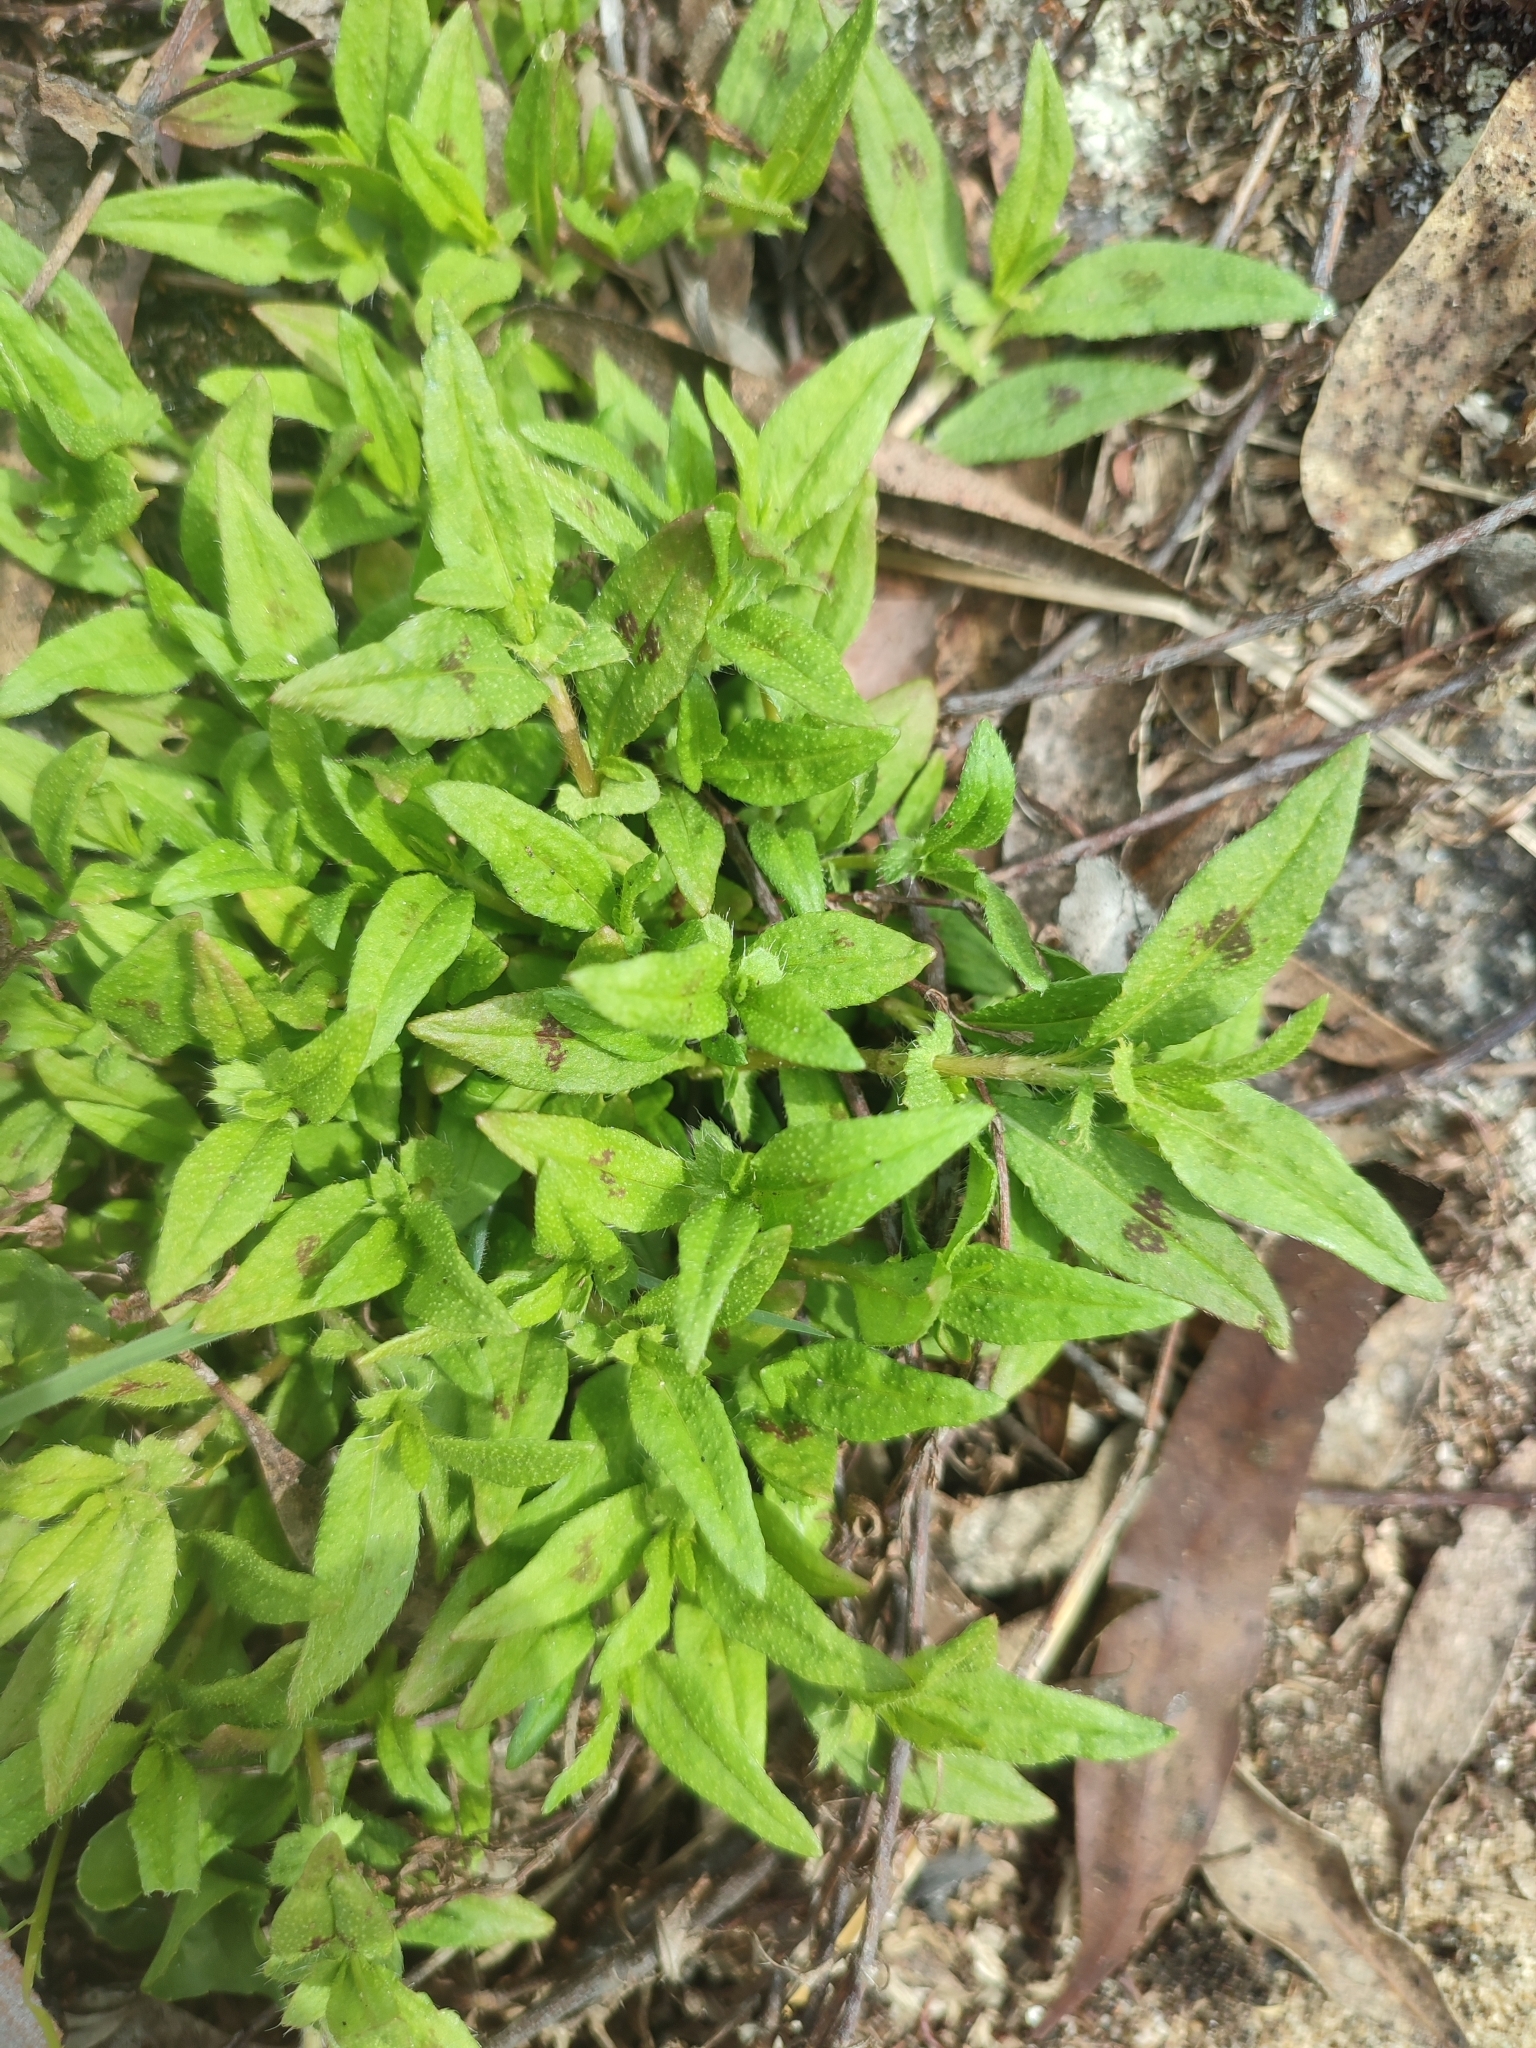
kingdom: Plantae
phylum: Tracheophyta
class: Magnoliopsida
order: Caryophyllales
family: Polygonaceae
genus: Persicaria
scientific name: Persicaria prostrata
